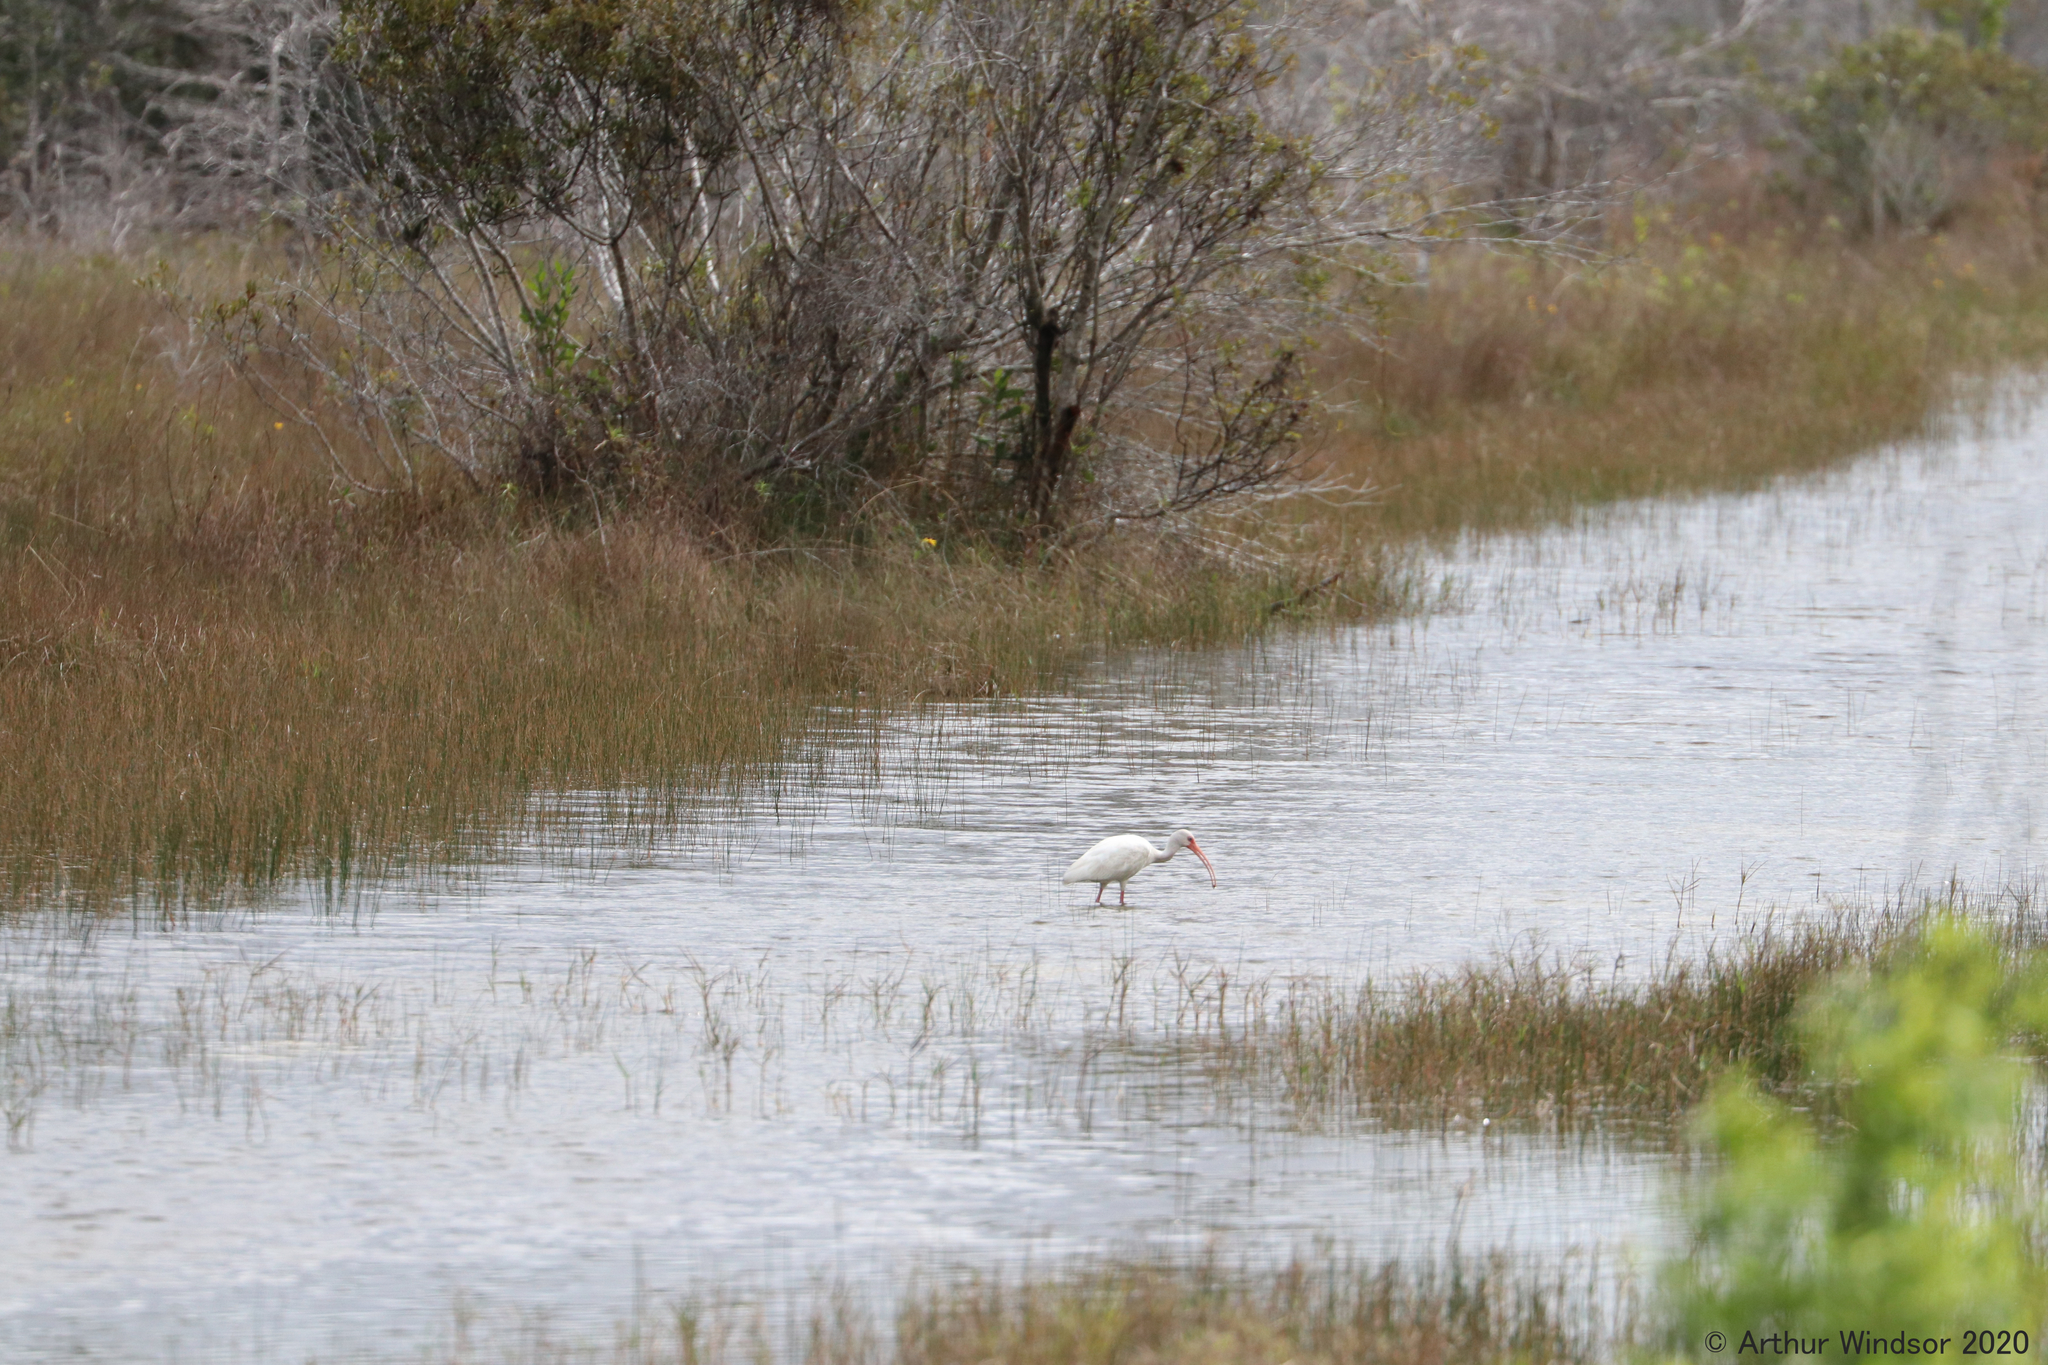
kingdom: Animalia
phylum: Chordata
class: Aves
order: Pelecaniformes
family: Threskiornithidae
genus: Eudocimus
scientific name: Eudocimus albus
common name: White ibis
